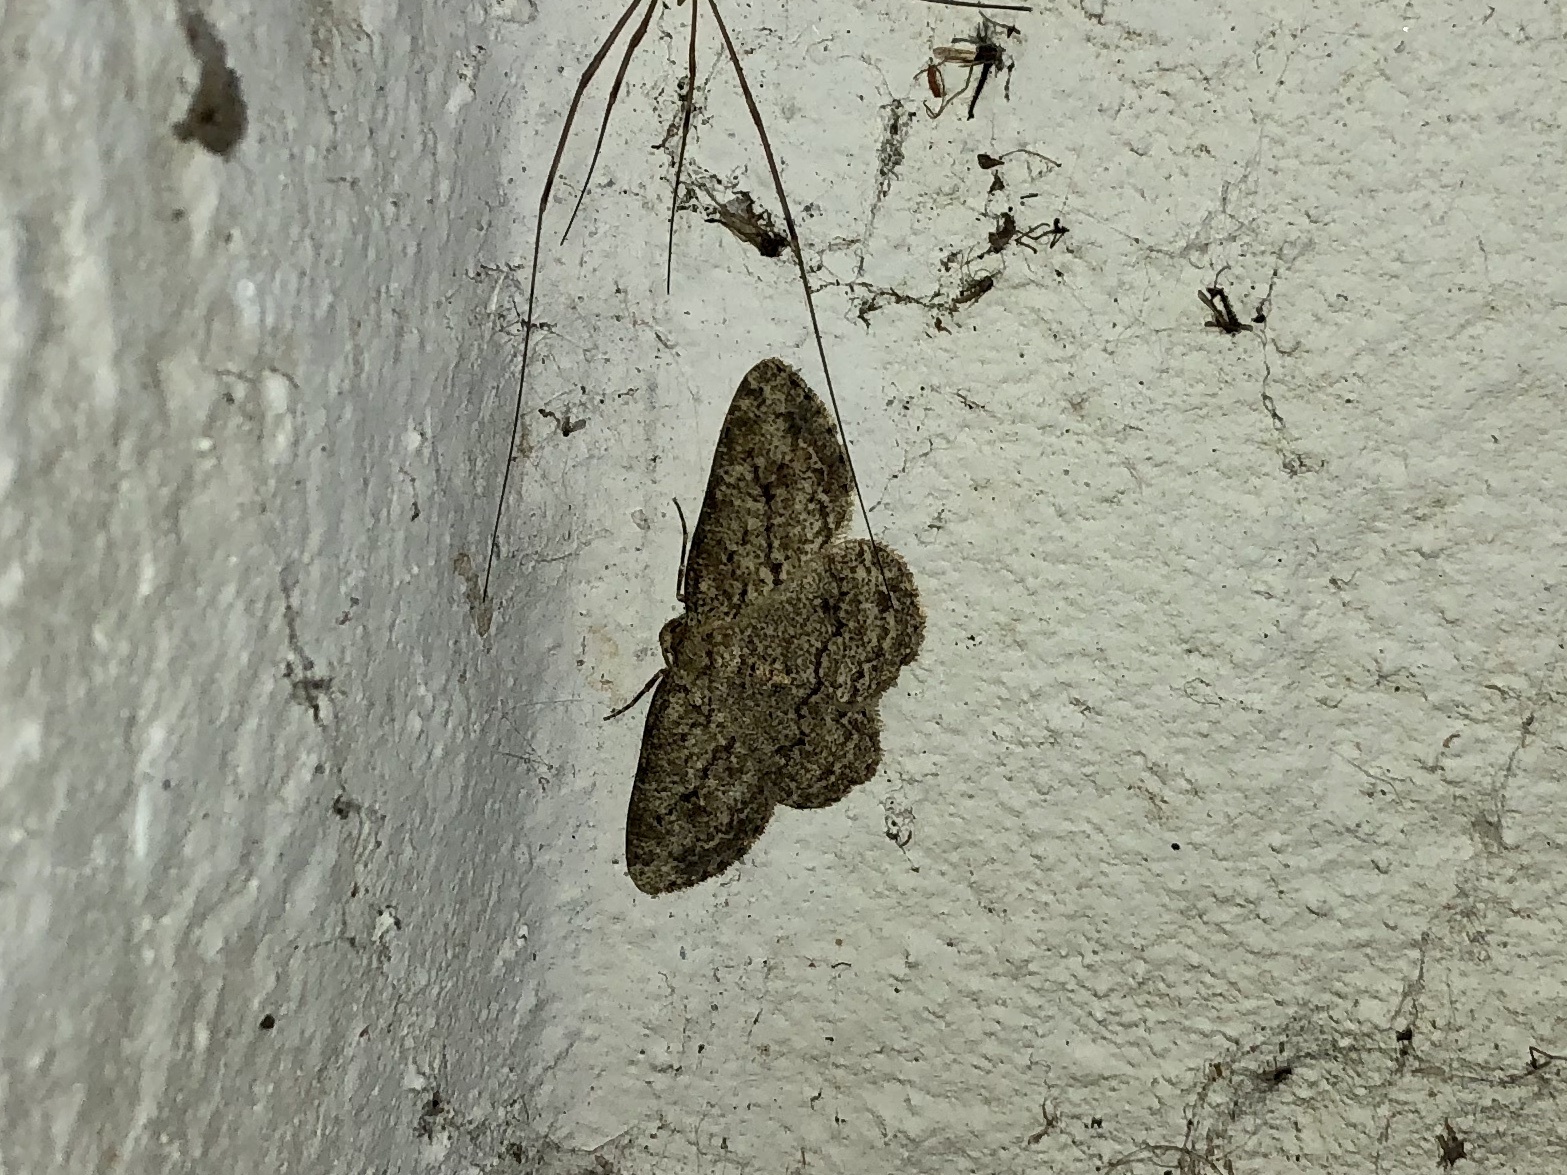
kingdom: Animalia
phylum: Arthropoda
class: Insecta
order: Lepidoptera
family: Geometridae
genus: Ectropis
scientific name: Ectropis crepuscularia
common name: Engrailed
